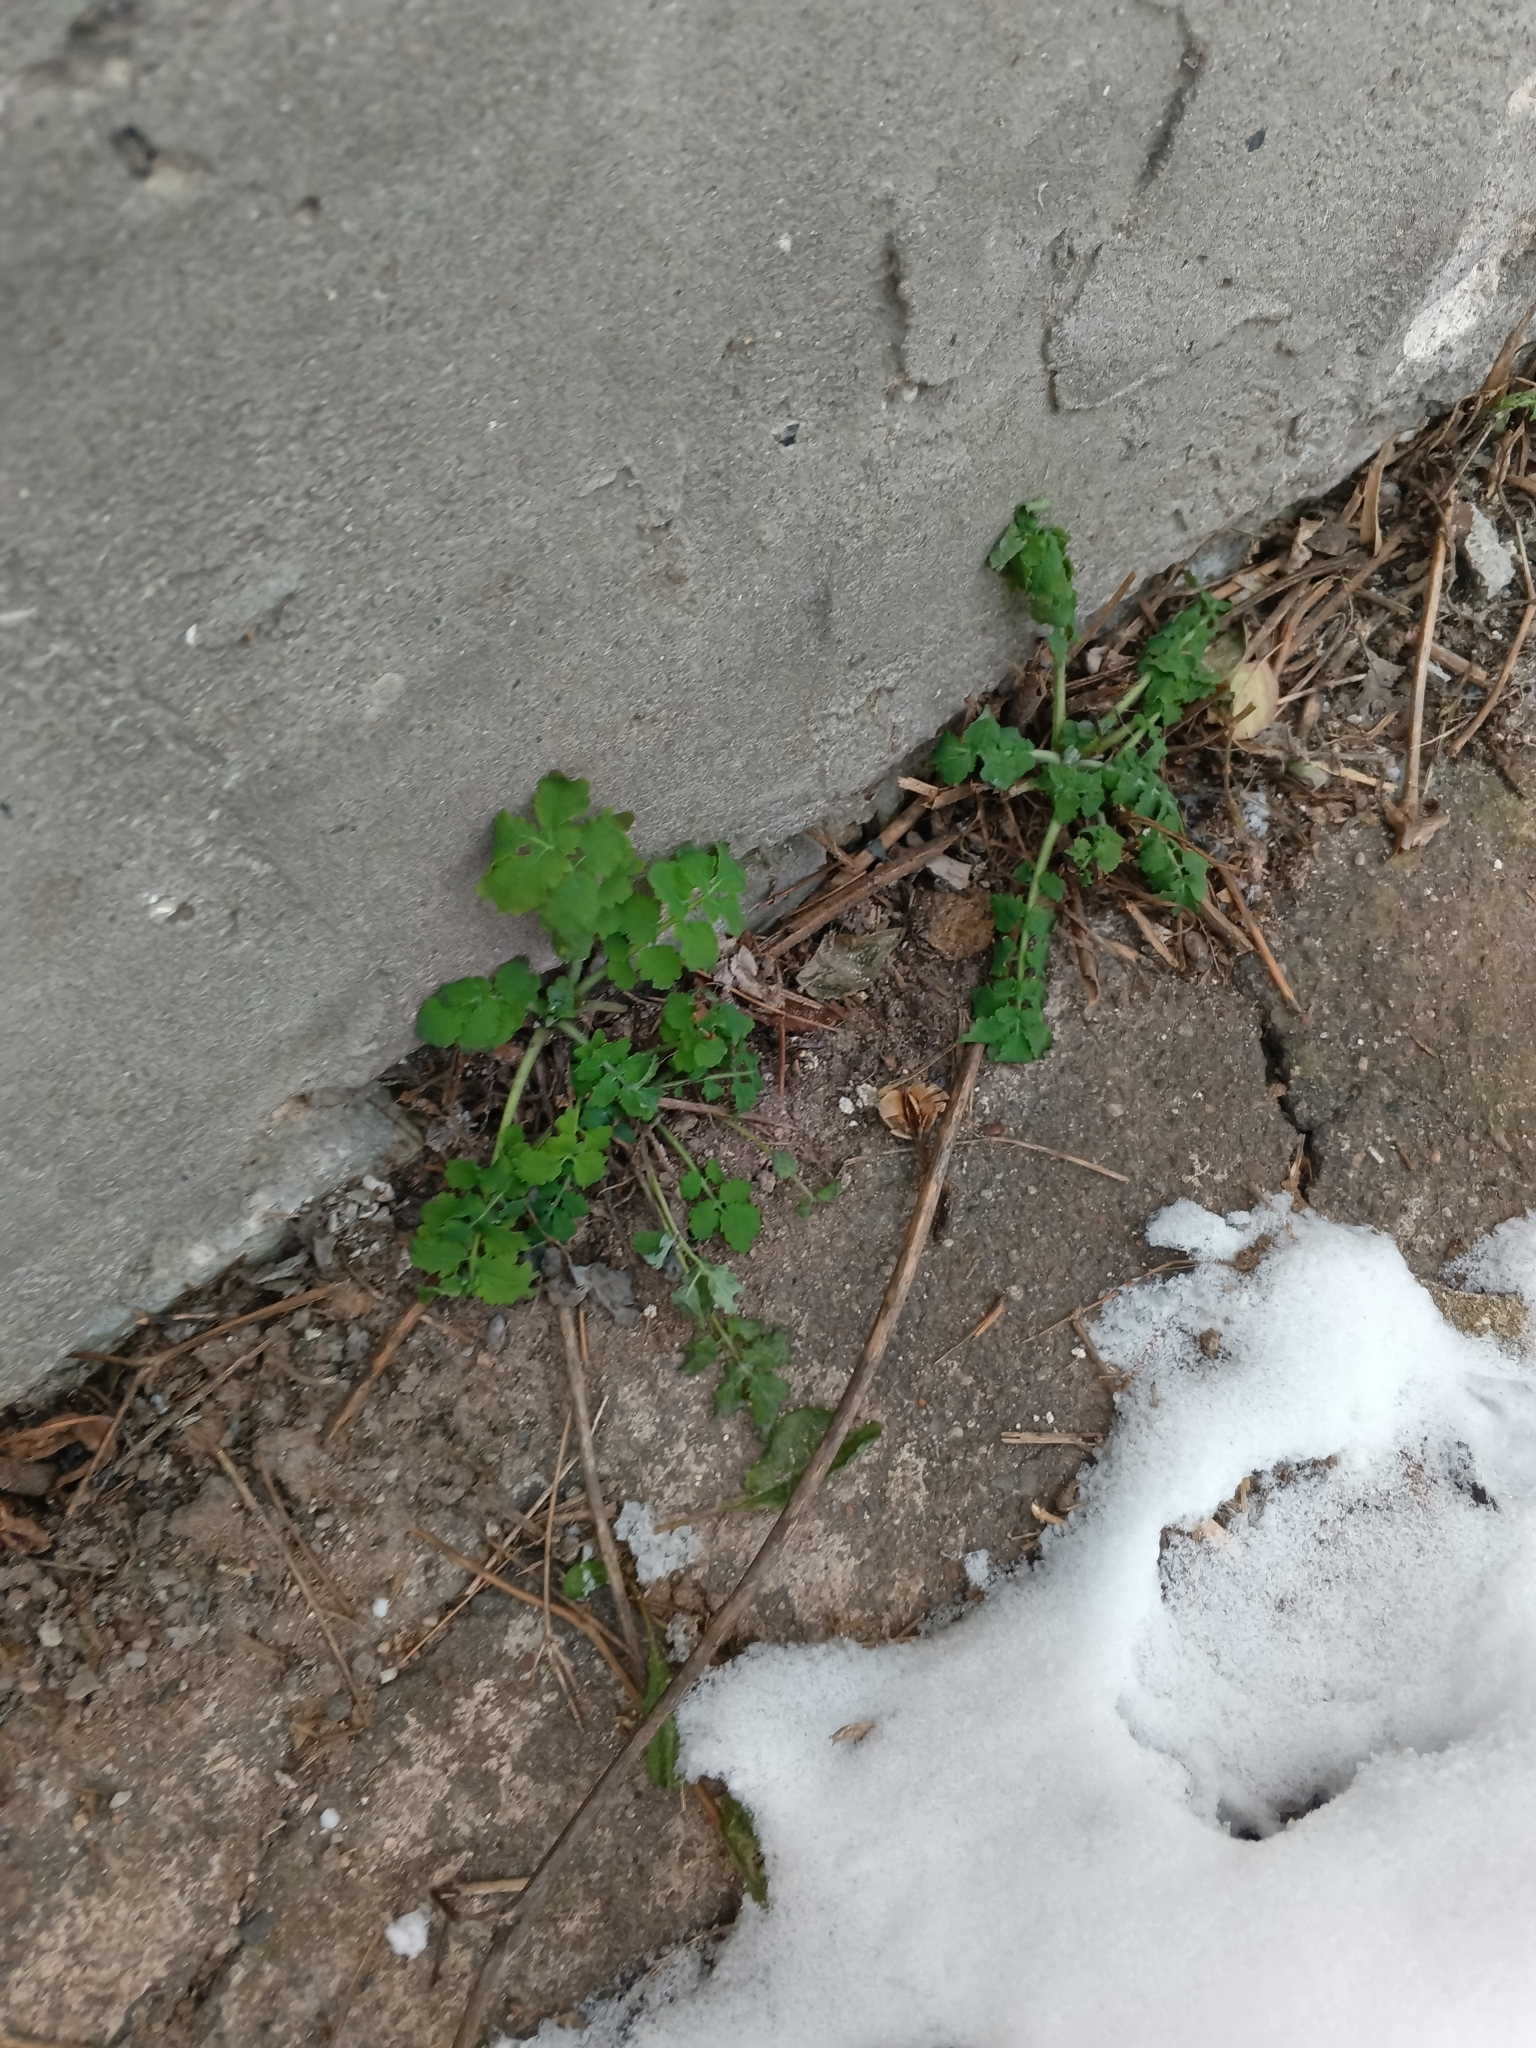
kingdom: Plantae
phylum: Tracheophyta
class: Magnoliopsida
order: Ranunculales
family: Papaveraceae
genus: Chelidonium
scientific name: Chelidonium majus
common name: Greater celandine
